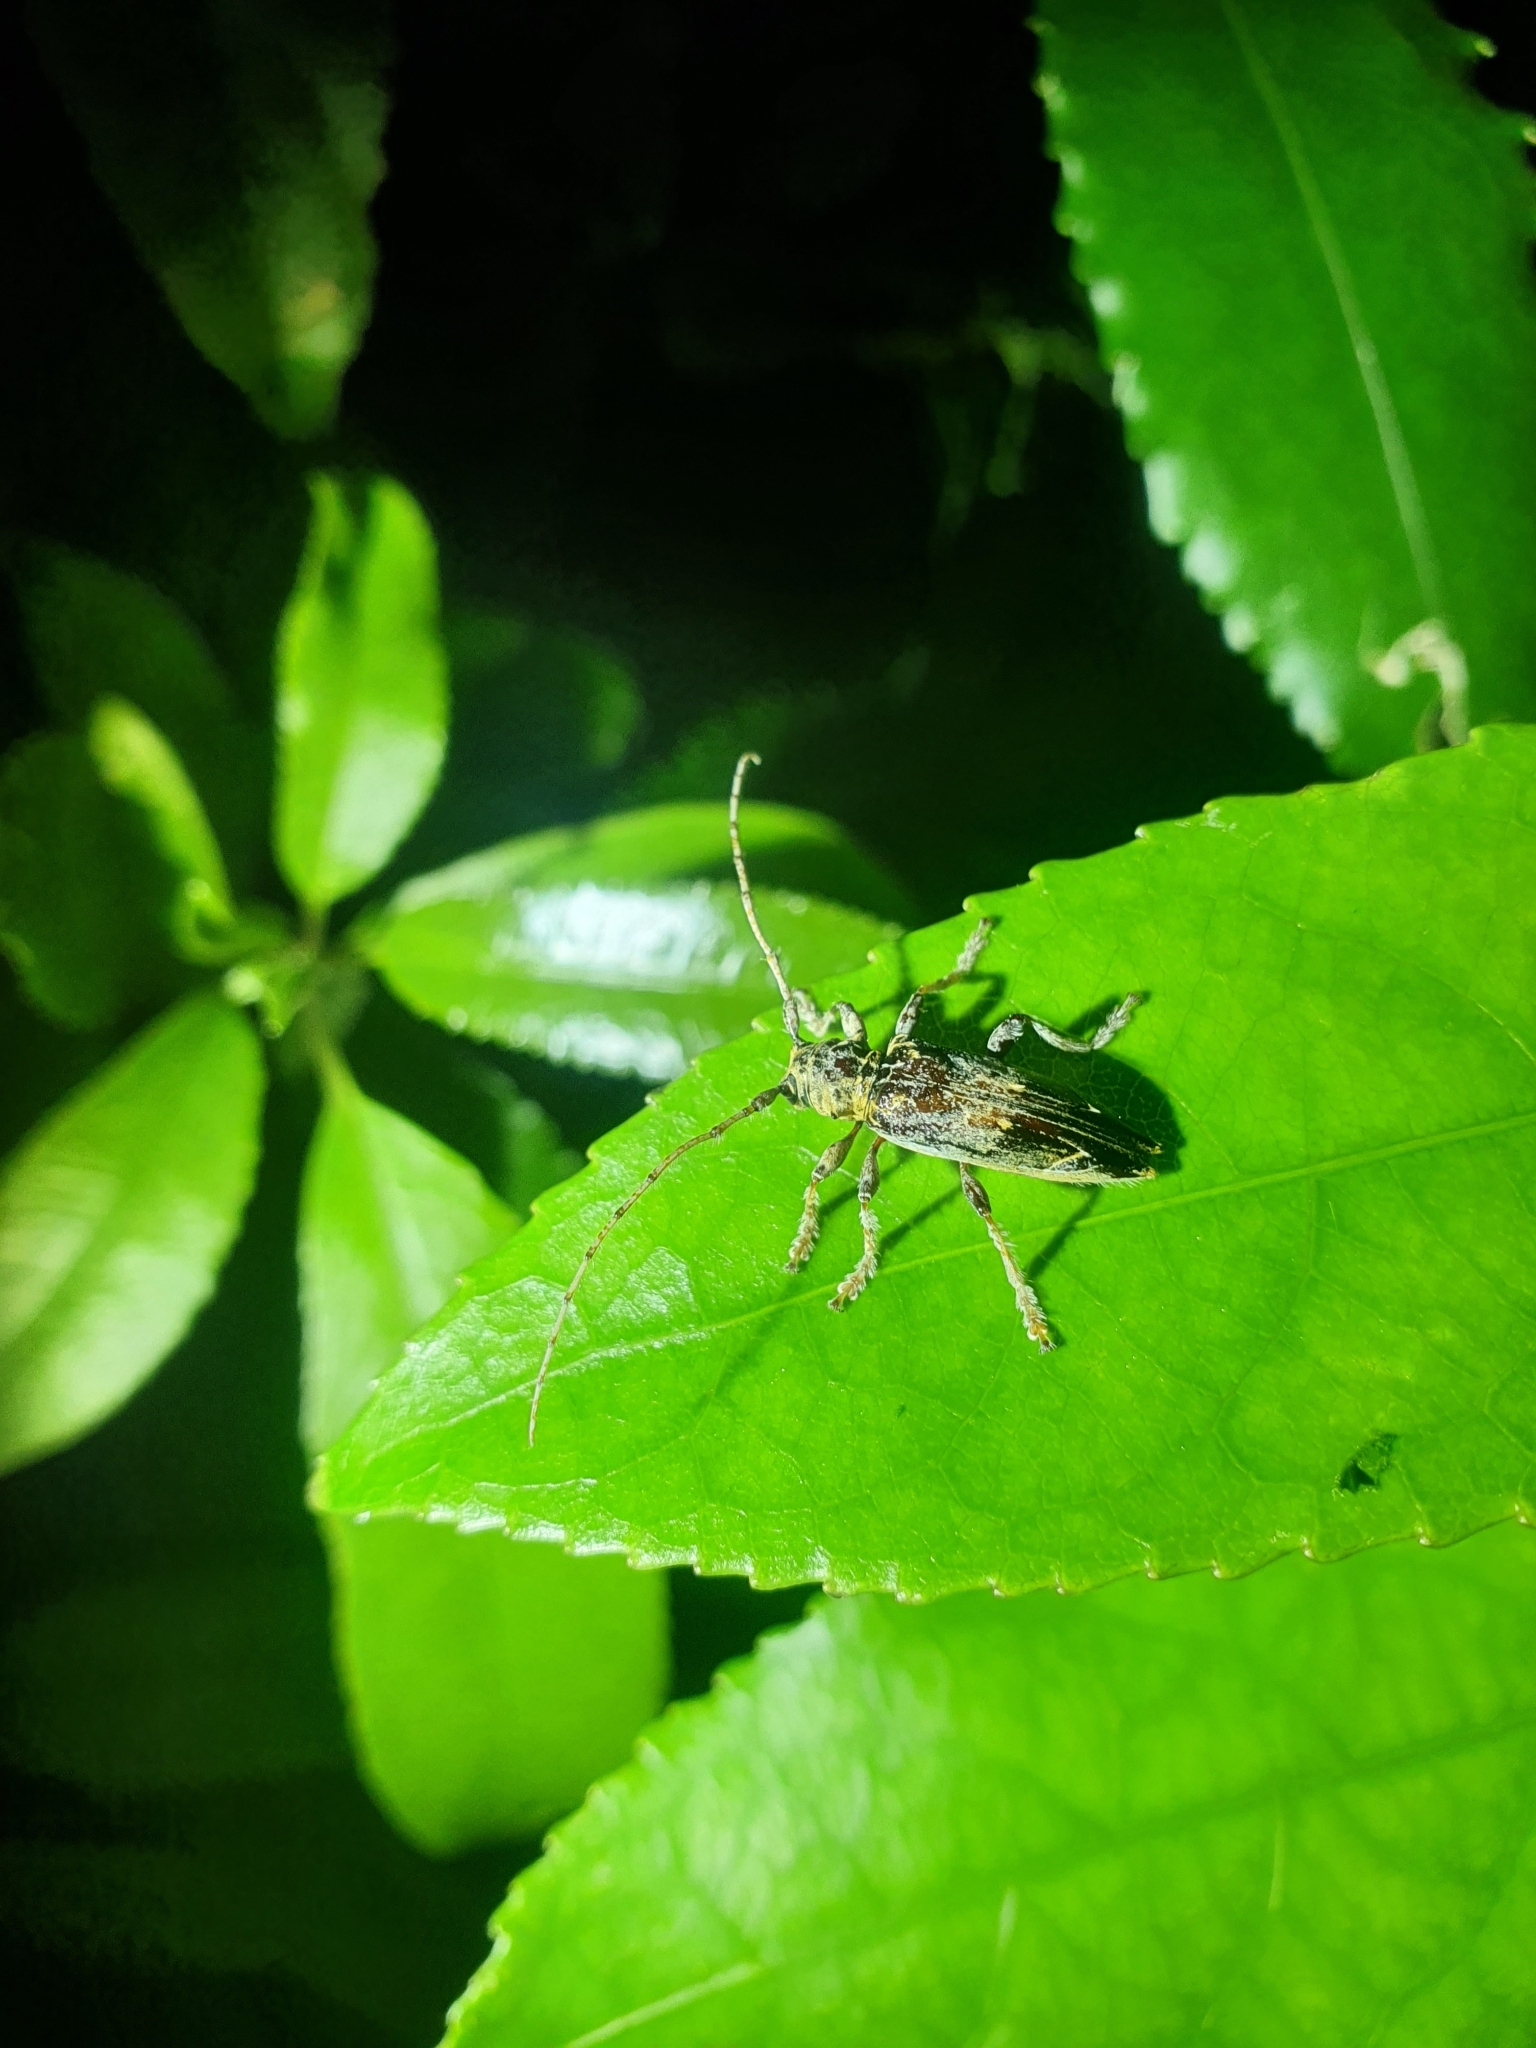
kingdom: Animalia
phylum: Arthropoda
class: Insecta
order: Coleoptera
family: Cerambycidae
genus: Tetrorea
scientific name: Tetrorea cilipes
